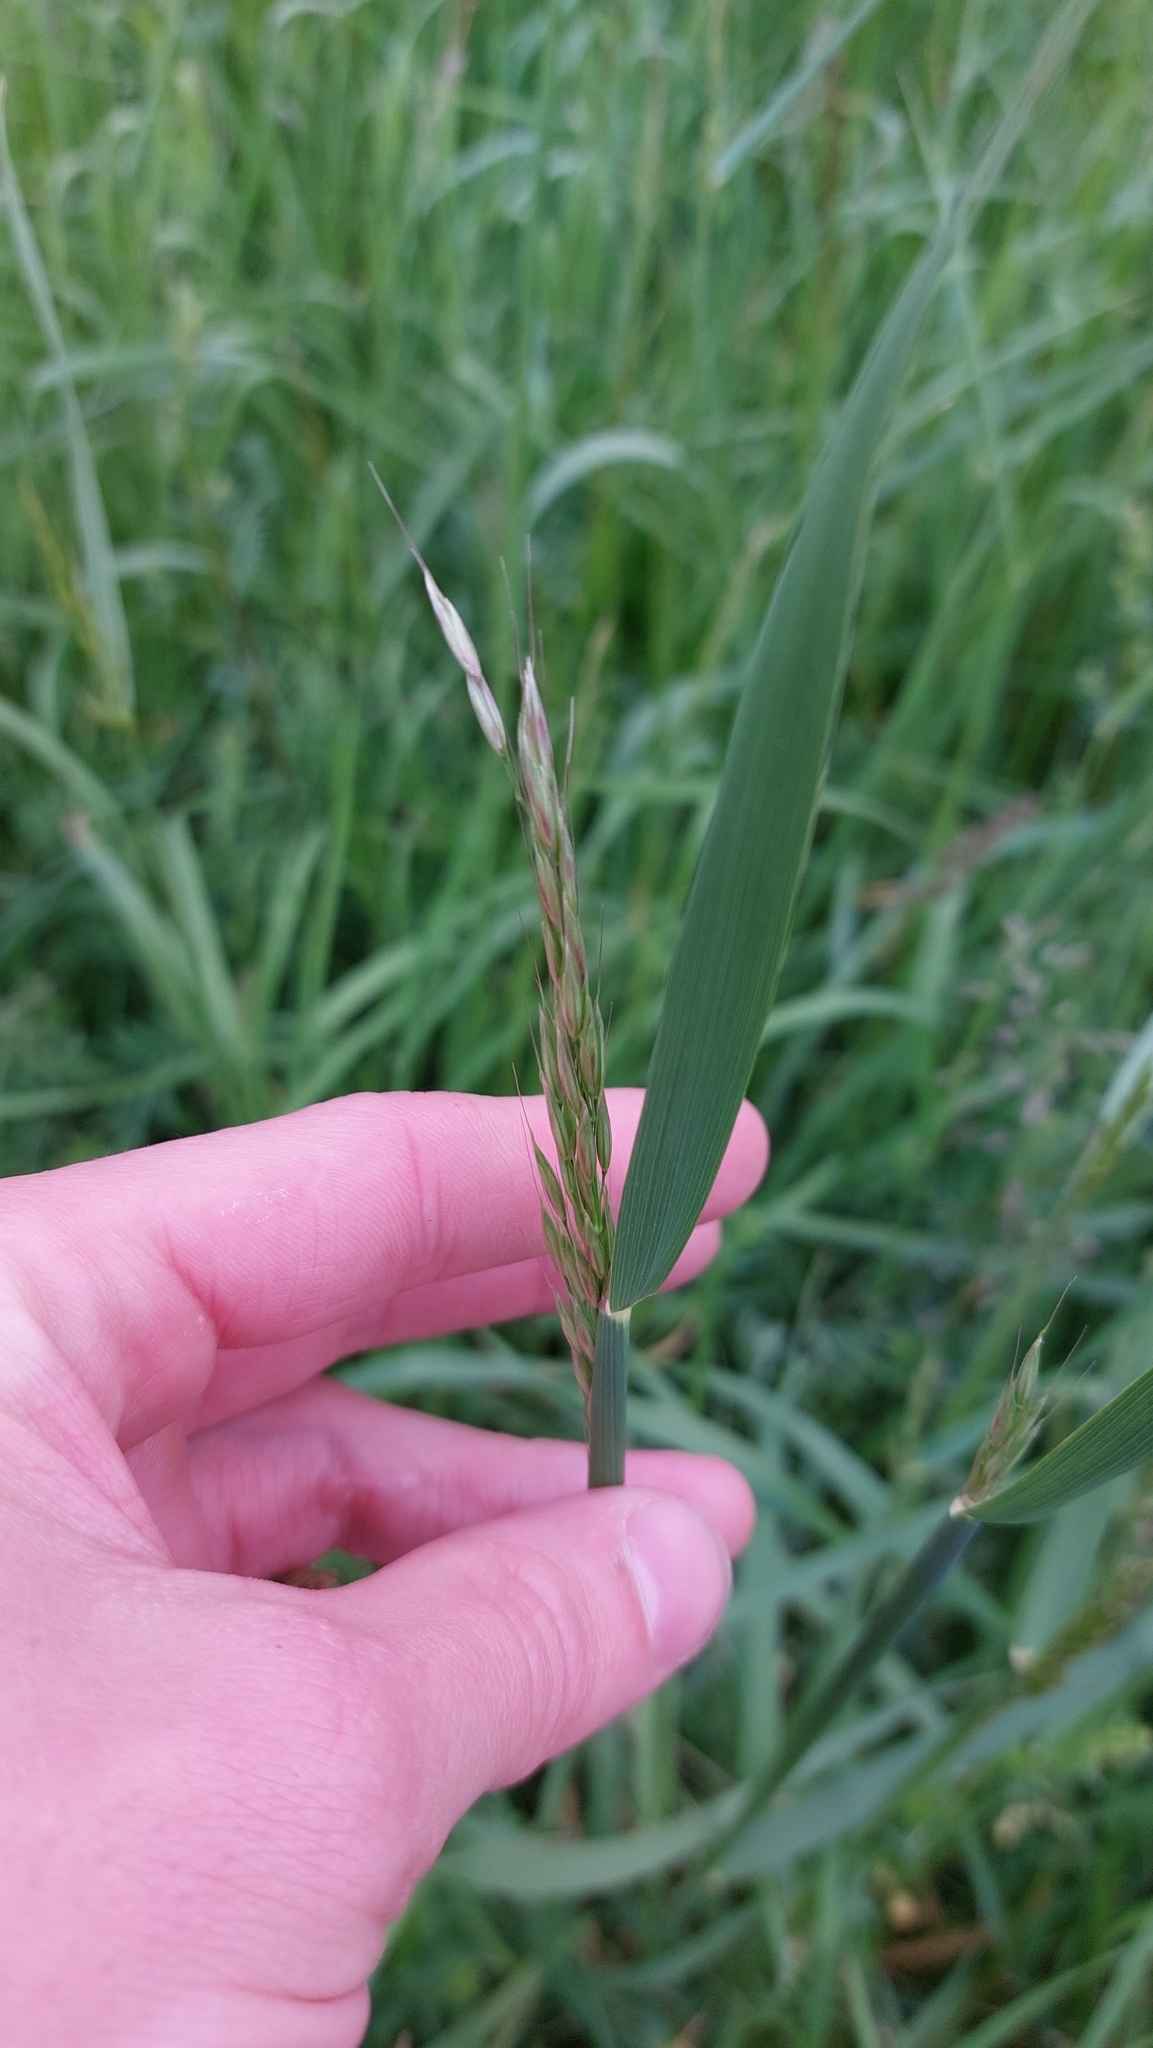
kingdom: Plantae
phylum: Tracheophyta
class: Liliopsida
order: Poales
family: Poaceae
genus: Arrhenatherum
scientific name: Arrhenatherum elatius
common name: Tall oatgrass
